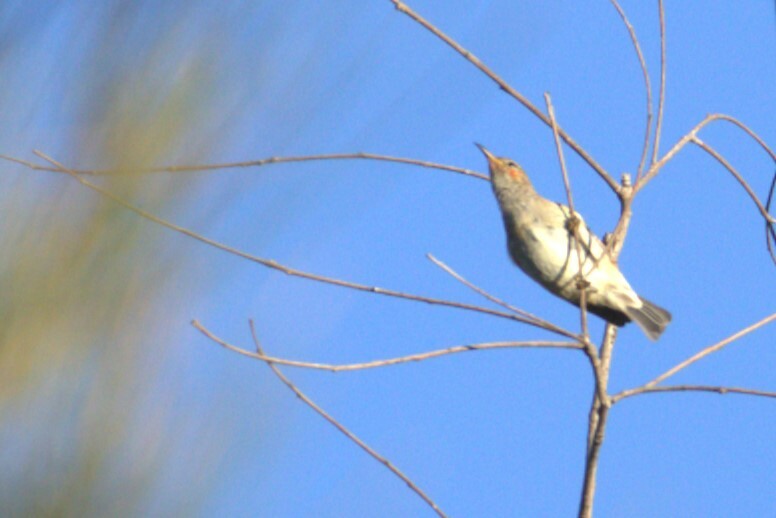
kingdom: Animalia
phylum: Chordata
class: Aves
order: Passeriformes
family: Meliphagidae
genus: Myzomela
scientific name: Myzomela sanguinolenta
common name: Scarlet myzomela
